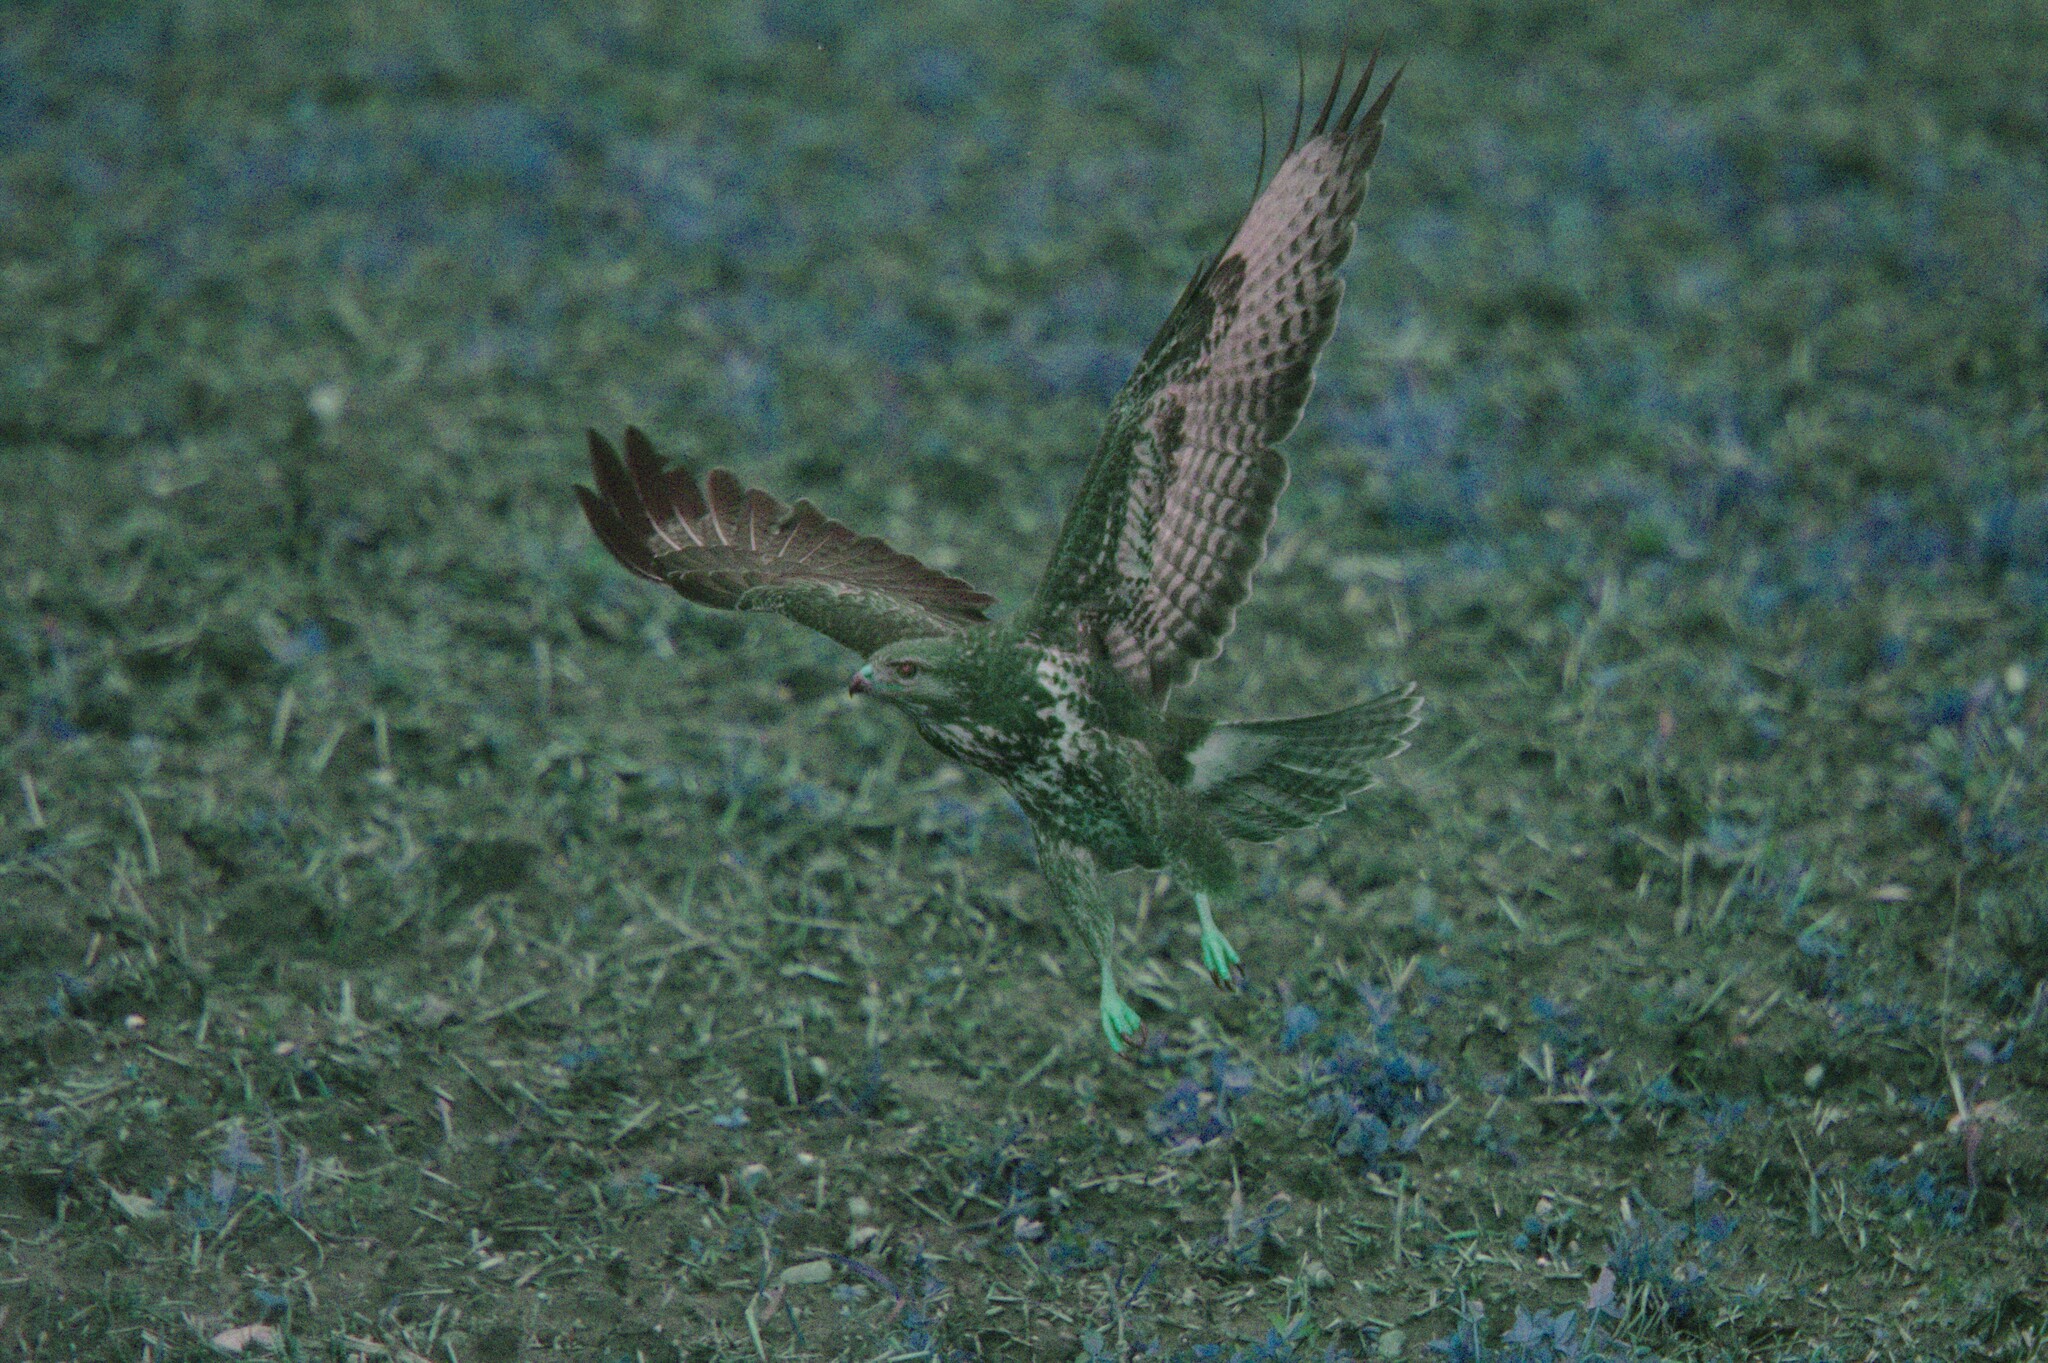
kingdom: Animalia
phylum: Chordata
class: Aves
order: Accipitriformes
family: Accipitridae
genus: Buteo
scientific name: Buteo buteo
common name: Common buzzard
